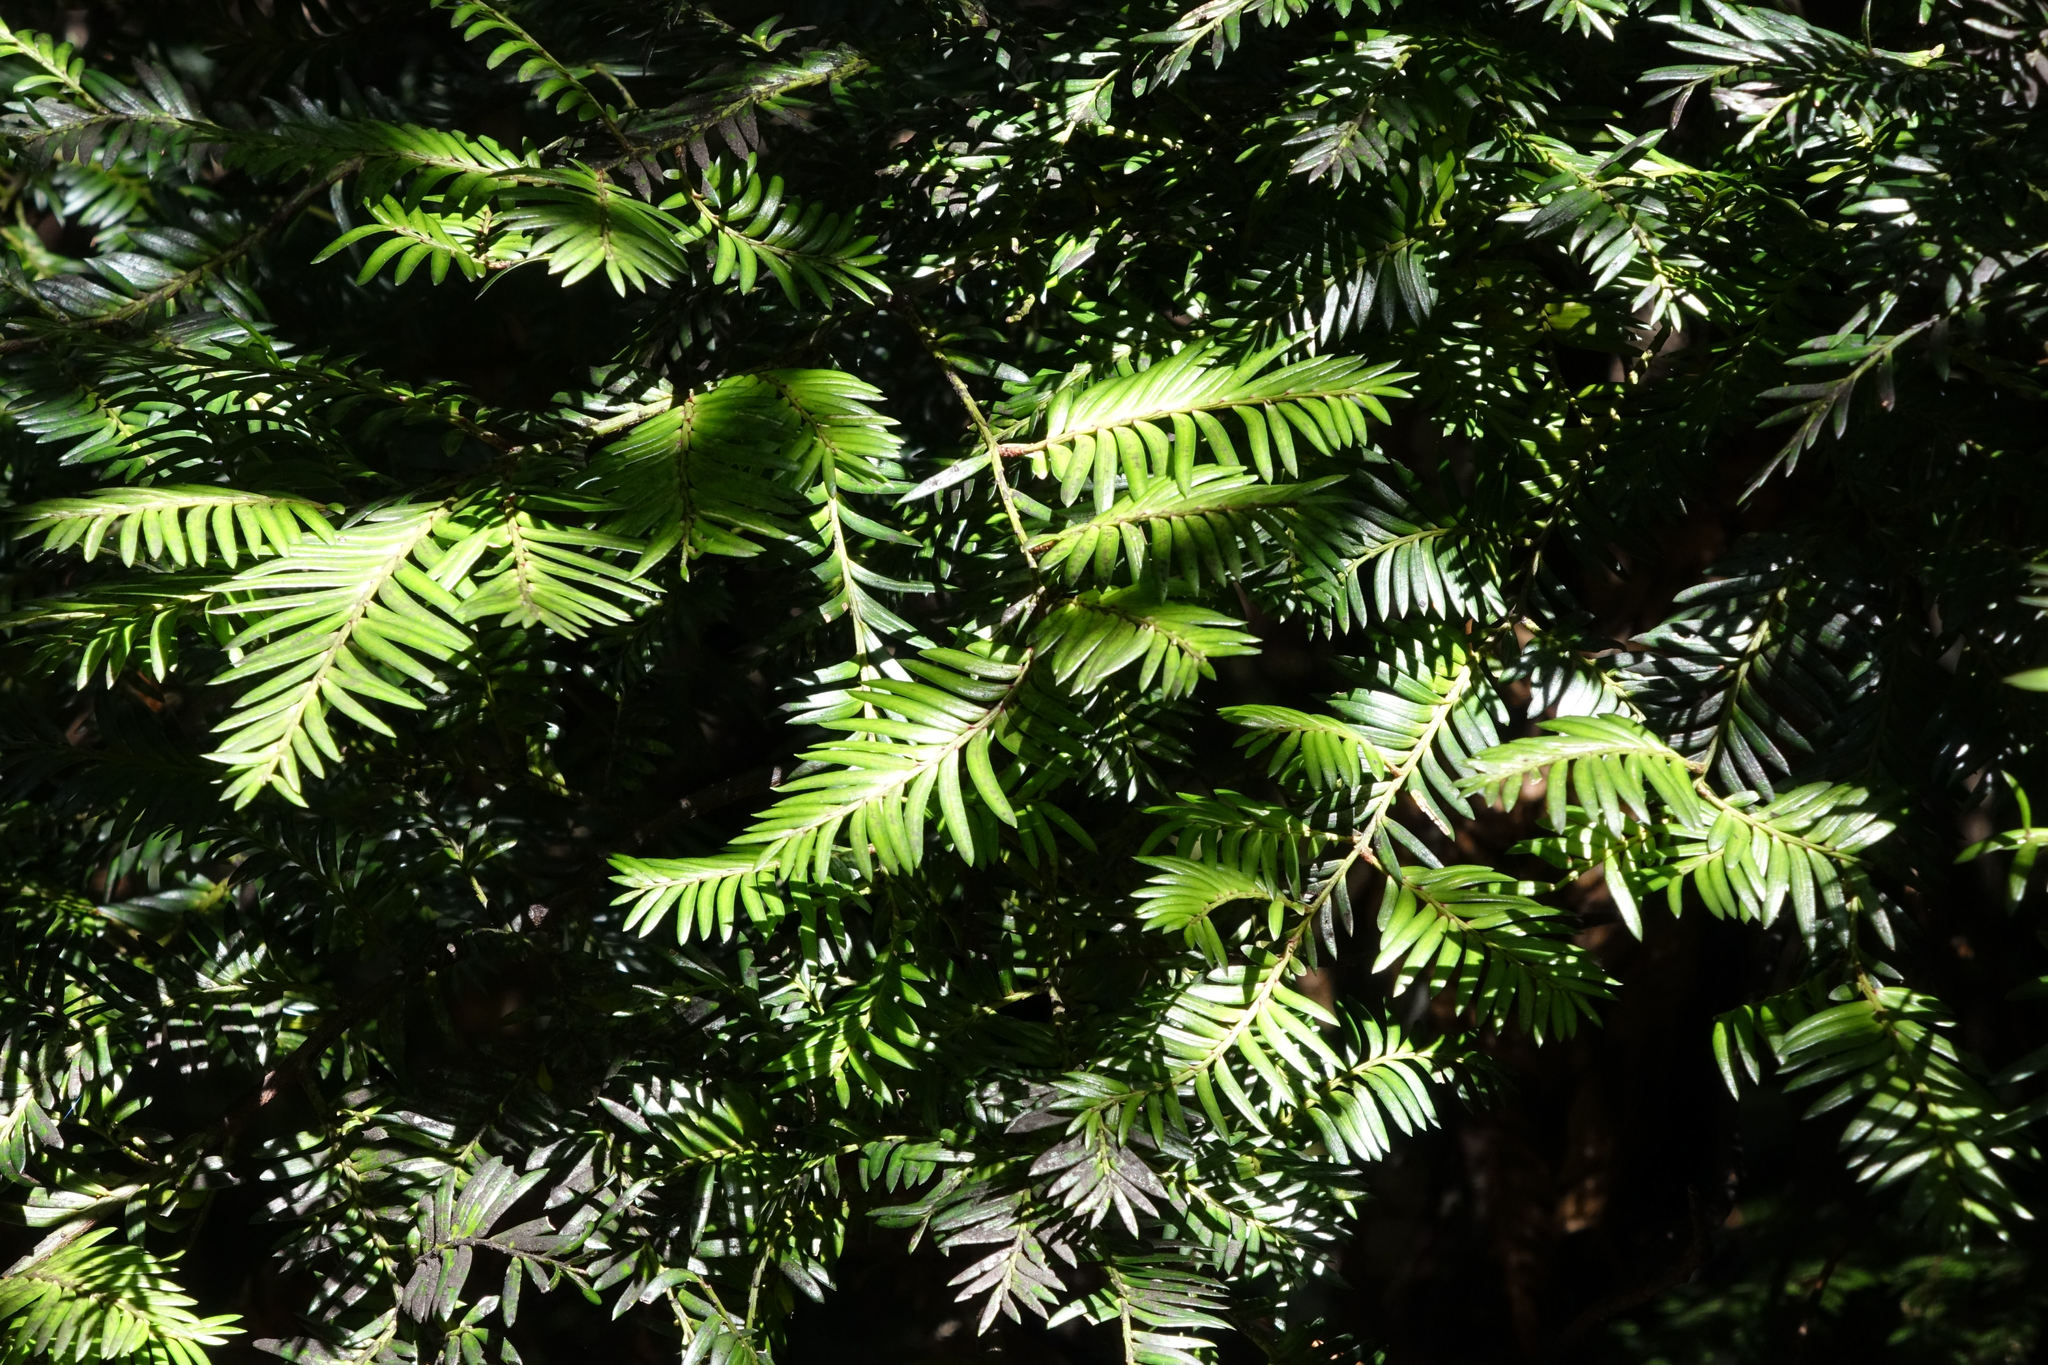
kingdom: Plantae
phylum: Tracheophyta
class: Pinopsida
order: Pinales
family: Podocarpaceae
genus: Prumnopitys
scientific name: Prumnopitys ferruginea
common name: Brown pine
